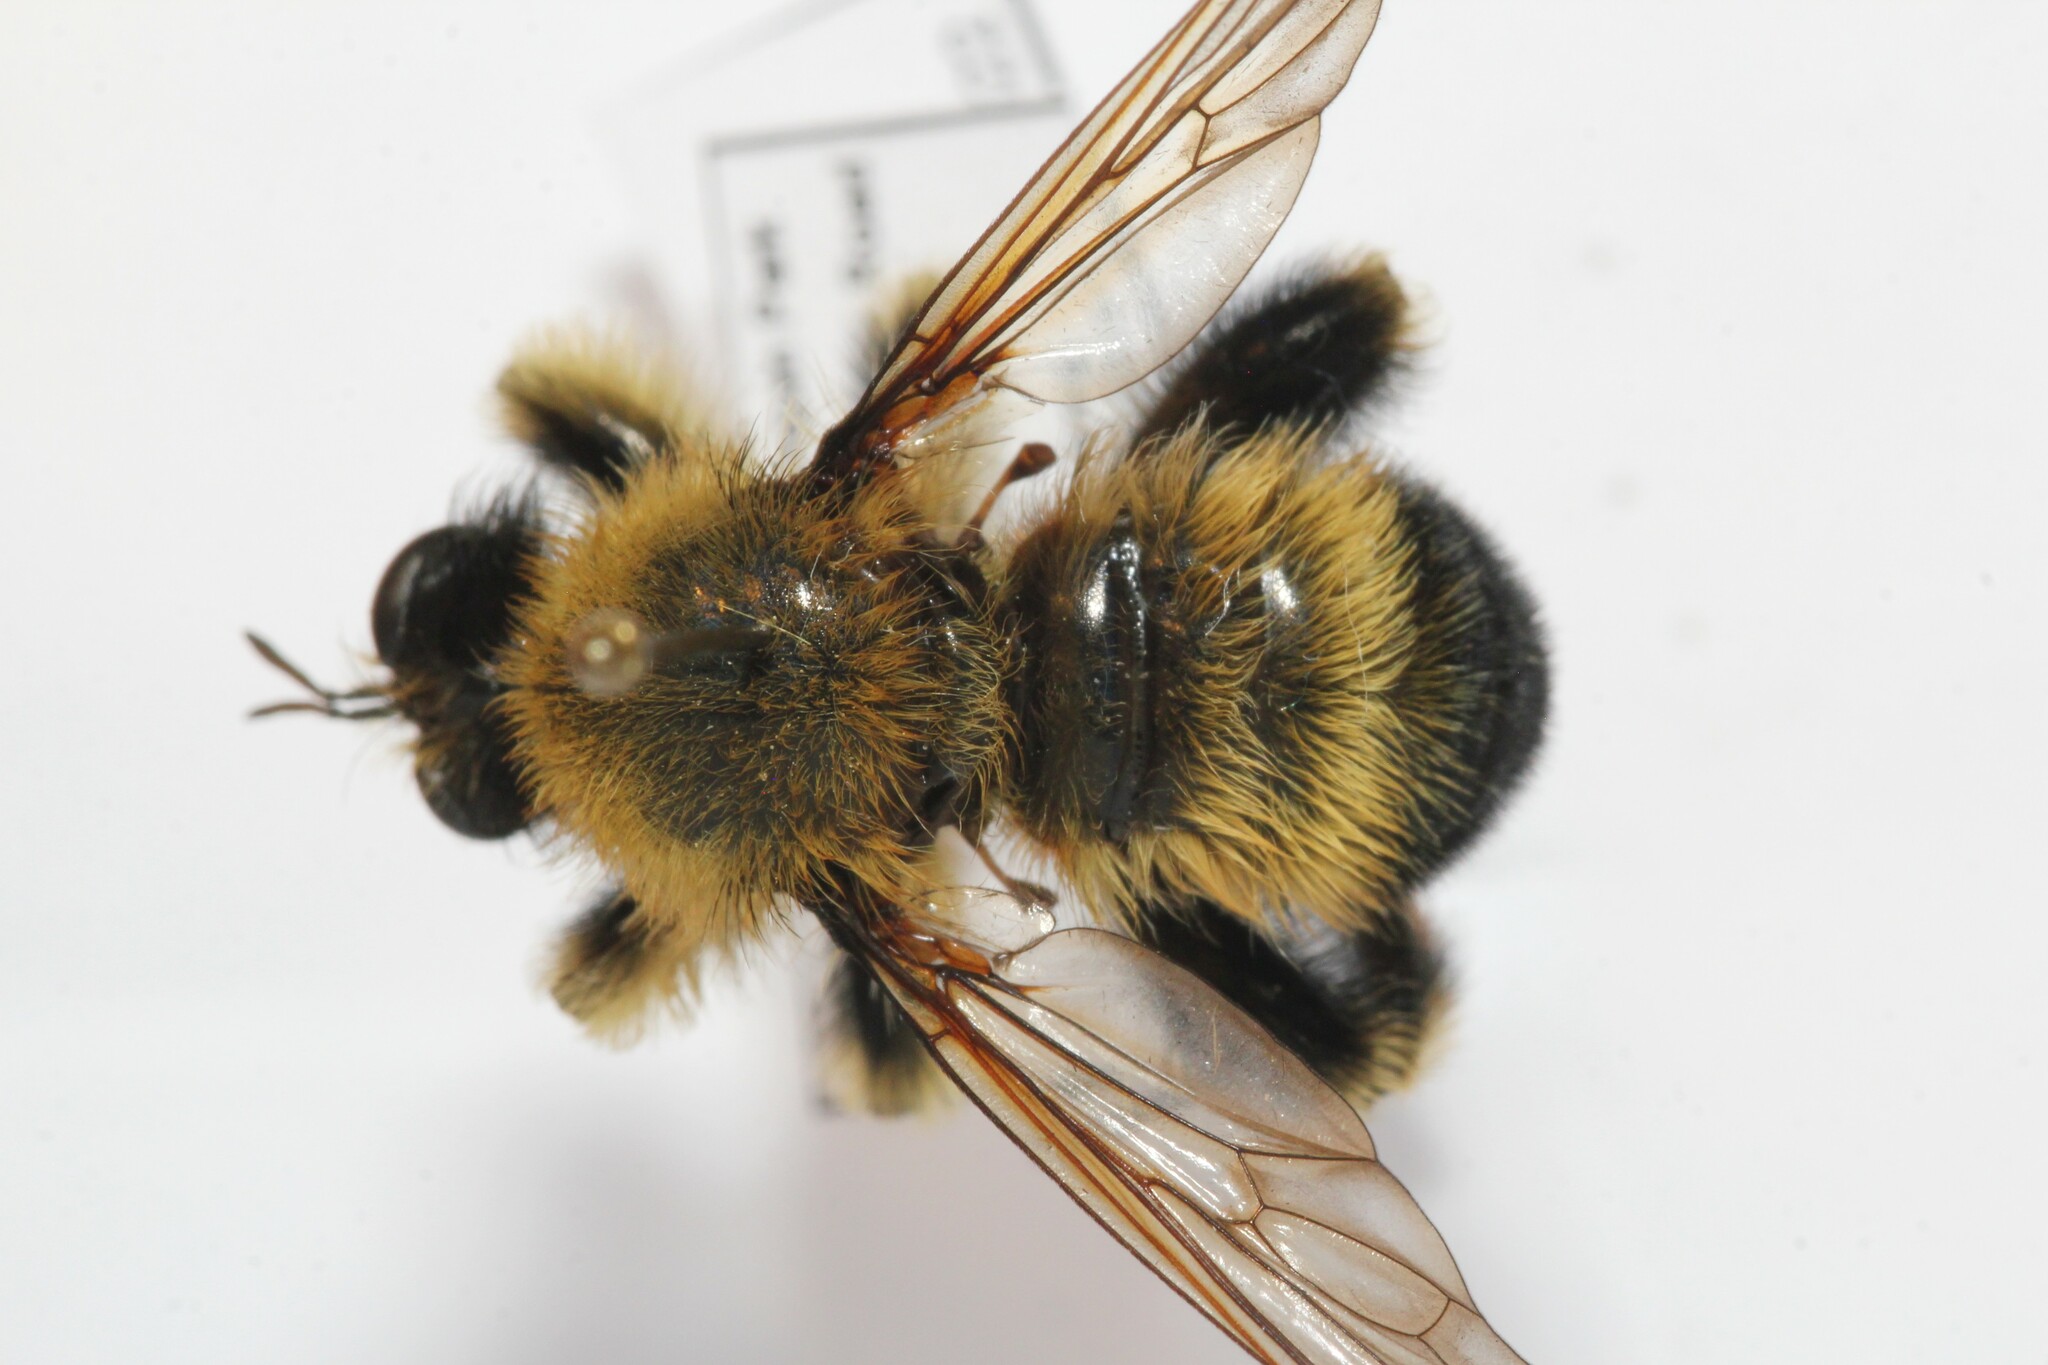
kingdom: Animalia
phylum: Arthropoda
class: Insecta
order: Diptera
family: Asilidae
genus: Laphria
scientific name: Laphria sacrator
